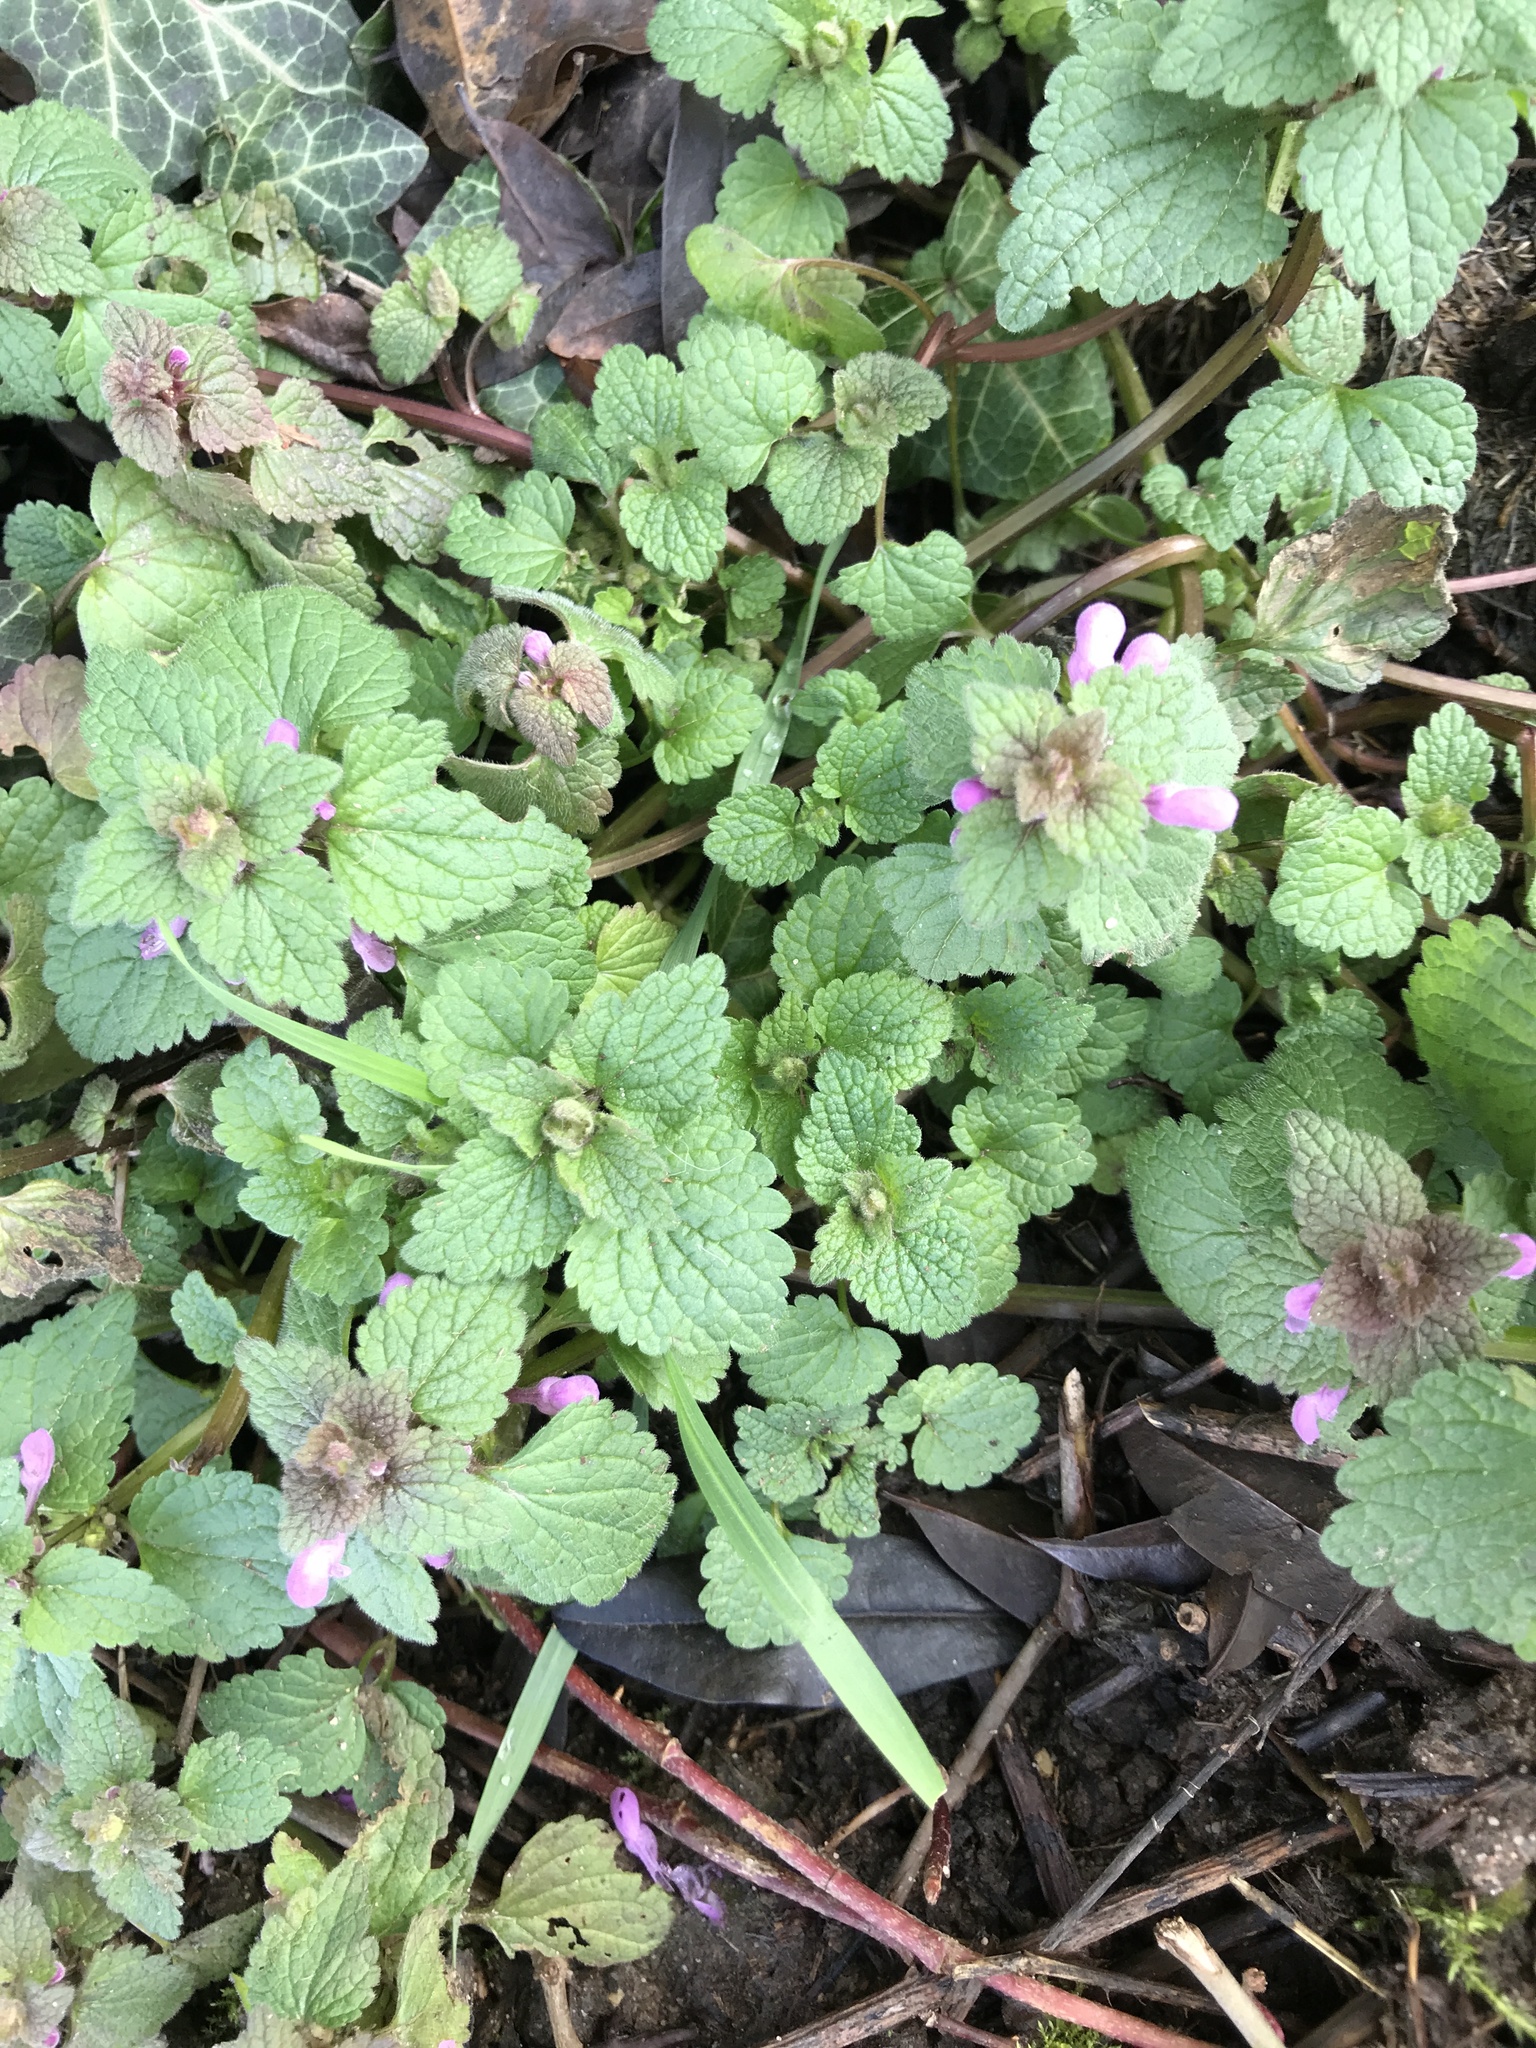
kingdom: Plantae
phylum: Tracheophyta
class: Magnoliopsida
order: Lamiales
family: Lamiaceae
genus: Lamium
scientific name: Lamium purpureum
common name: Red dead-nettle
